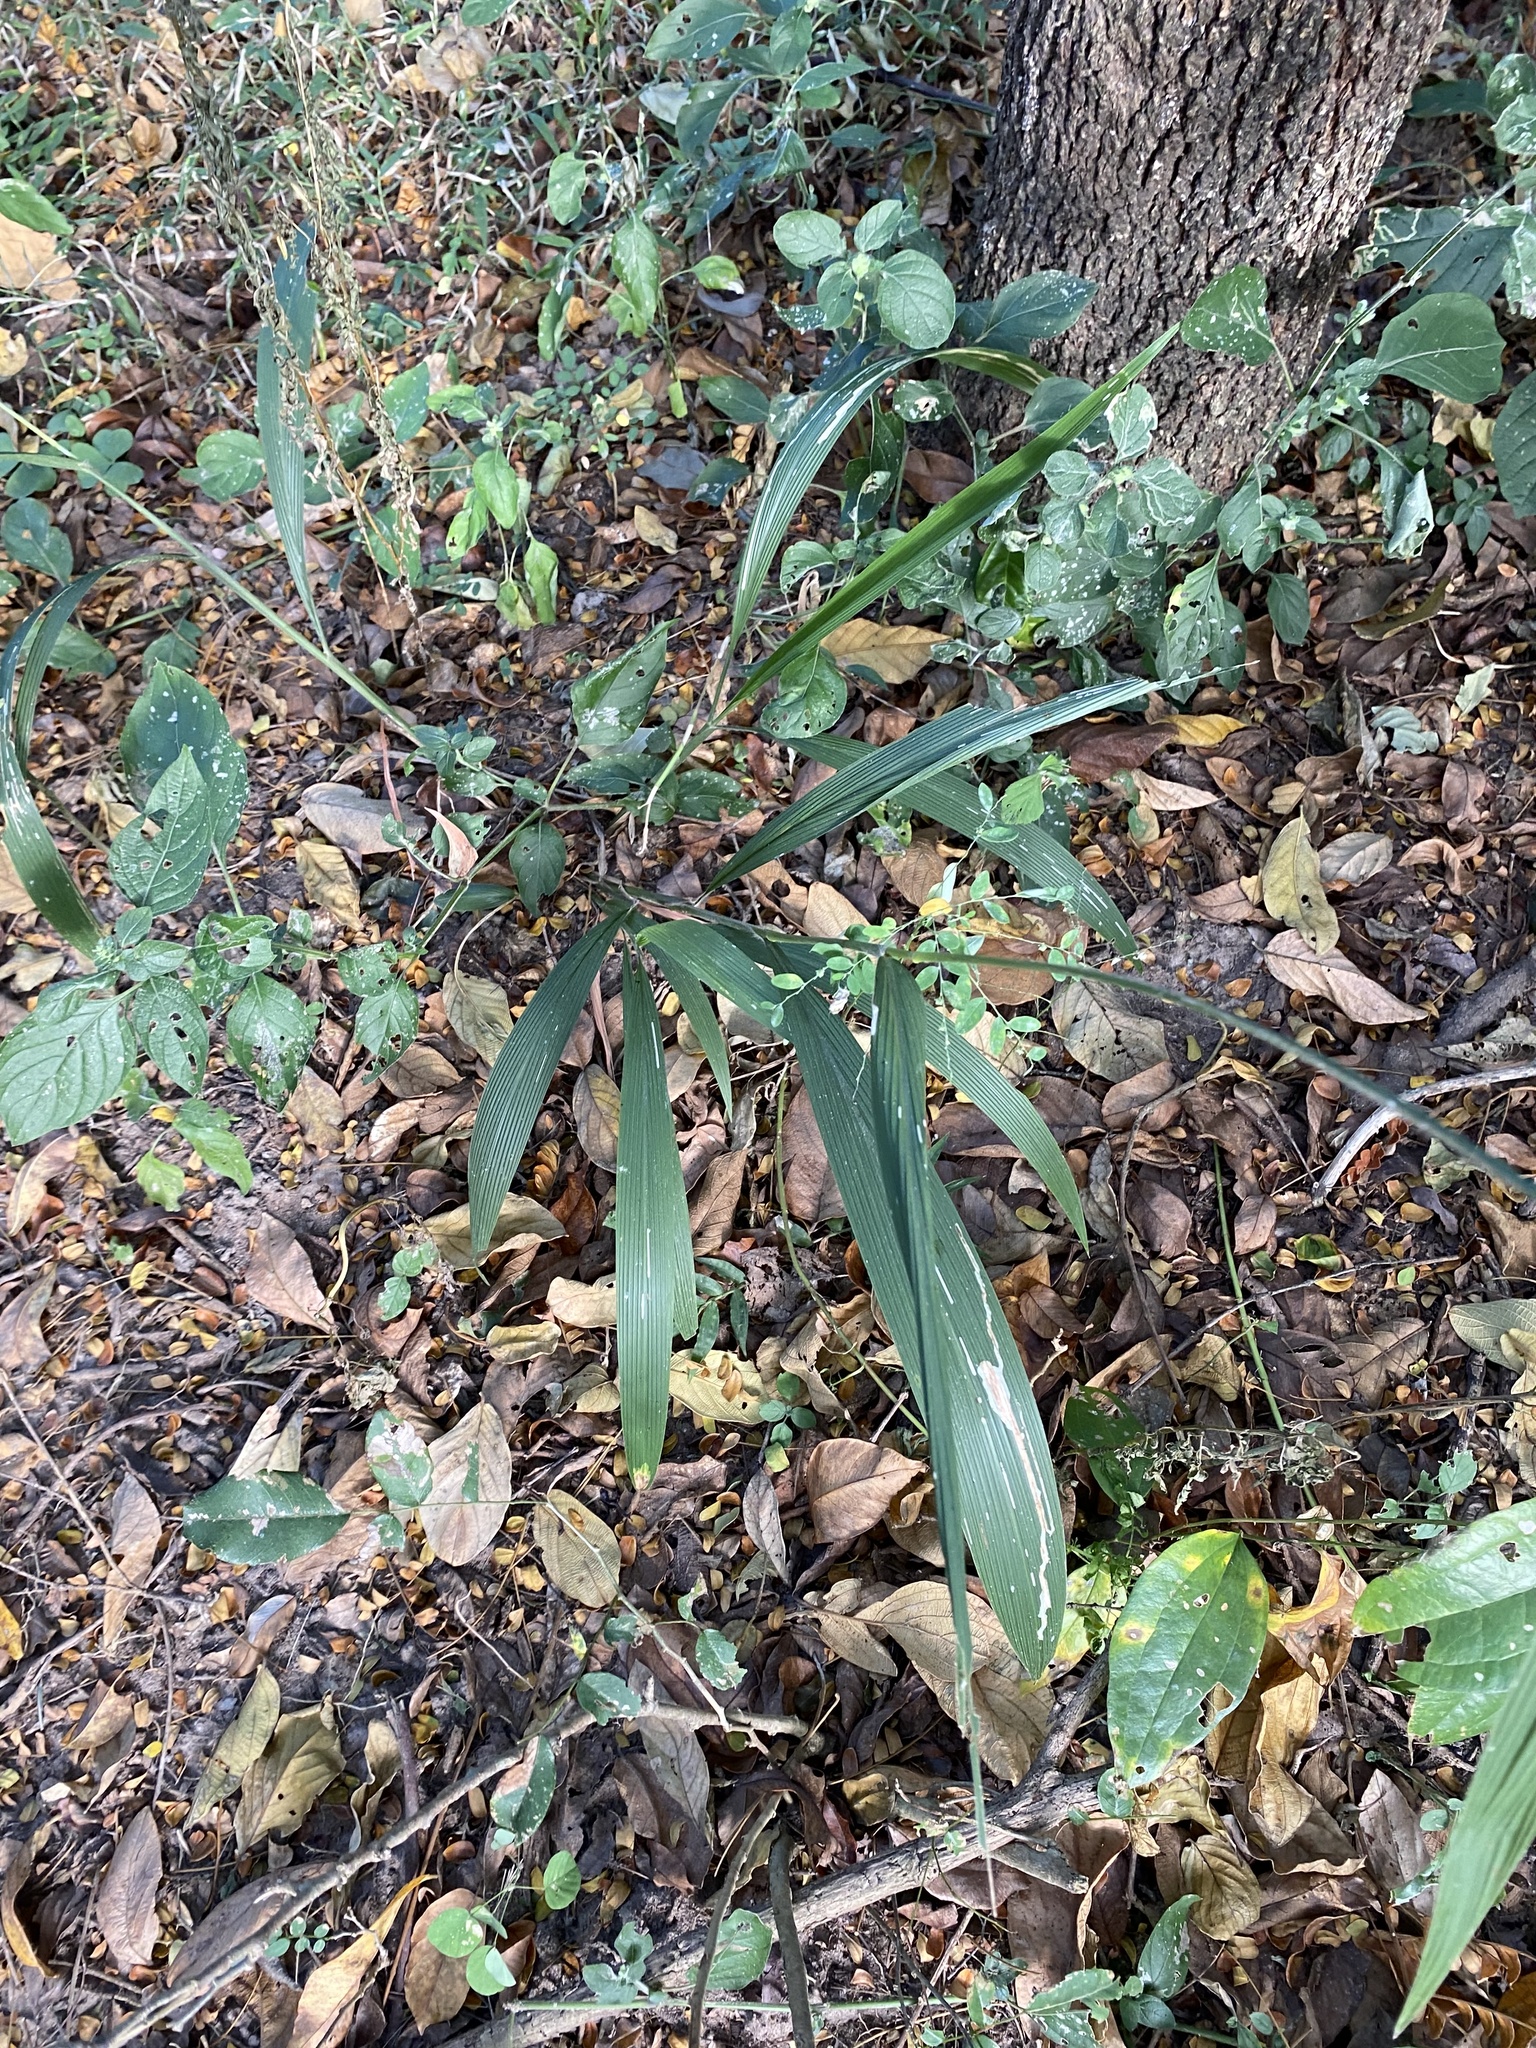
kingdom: Plantae
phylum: Tracheophyta
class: Liliopsida
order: Poales
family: Poaceae
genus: Setaria
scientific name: Setaria megaphylla
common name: Bigleaf bristlegrass
